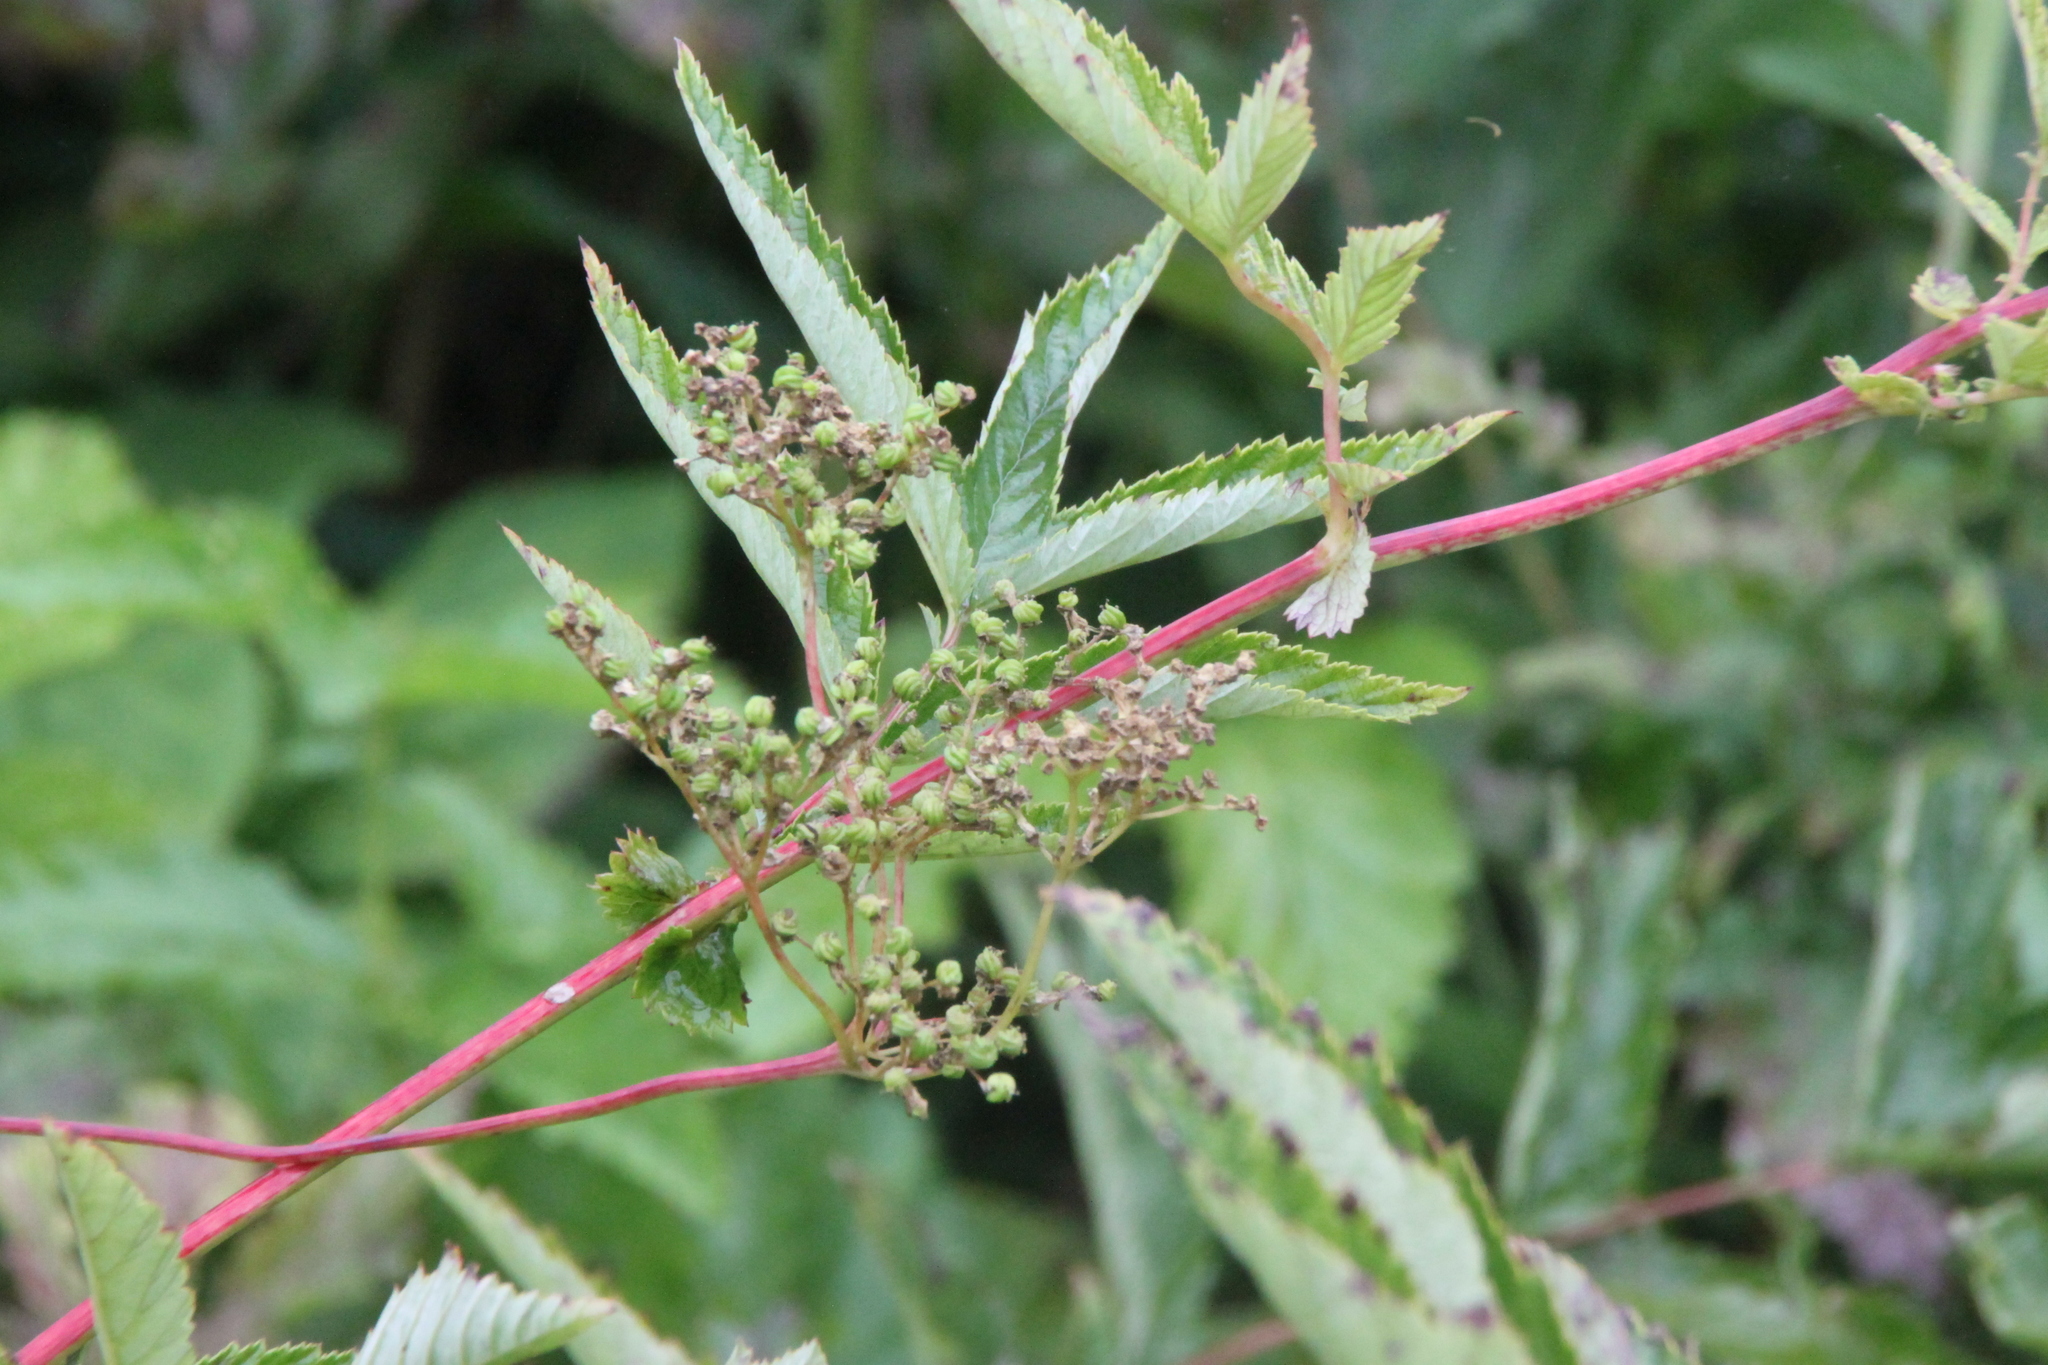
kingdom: Plantae
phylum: Tracheophyta
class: Magnoliopsida
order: Rosales
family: Rosaceae
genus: Filipendula
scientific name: Filipendula ulmaria
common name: Meadowsweet
